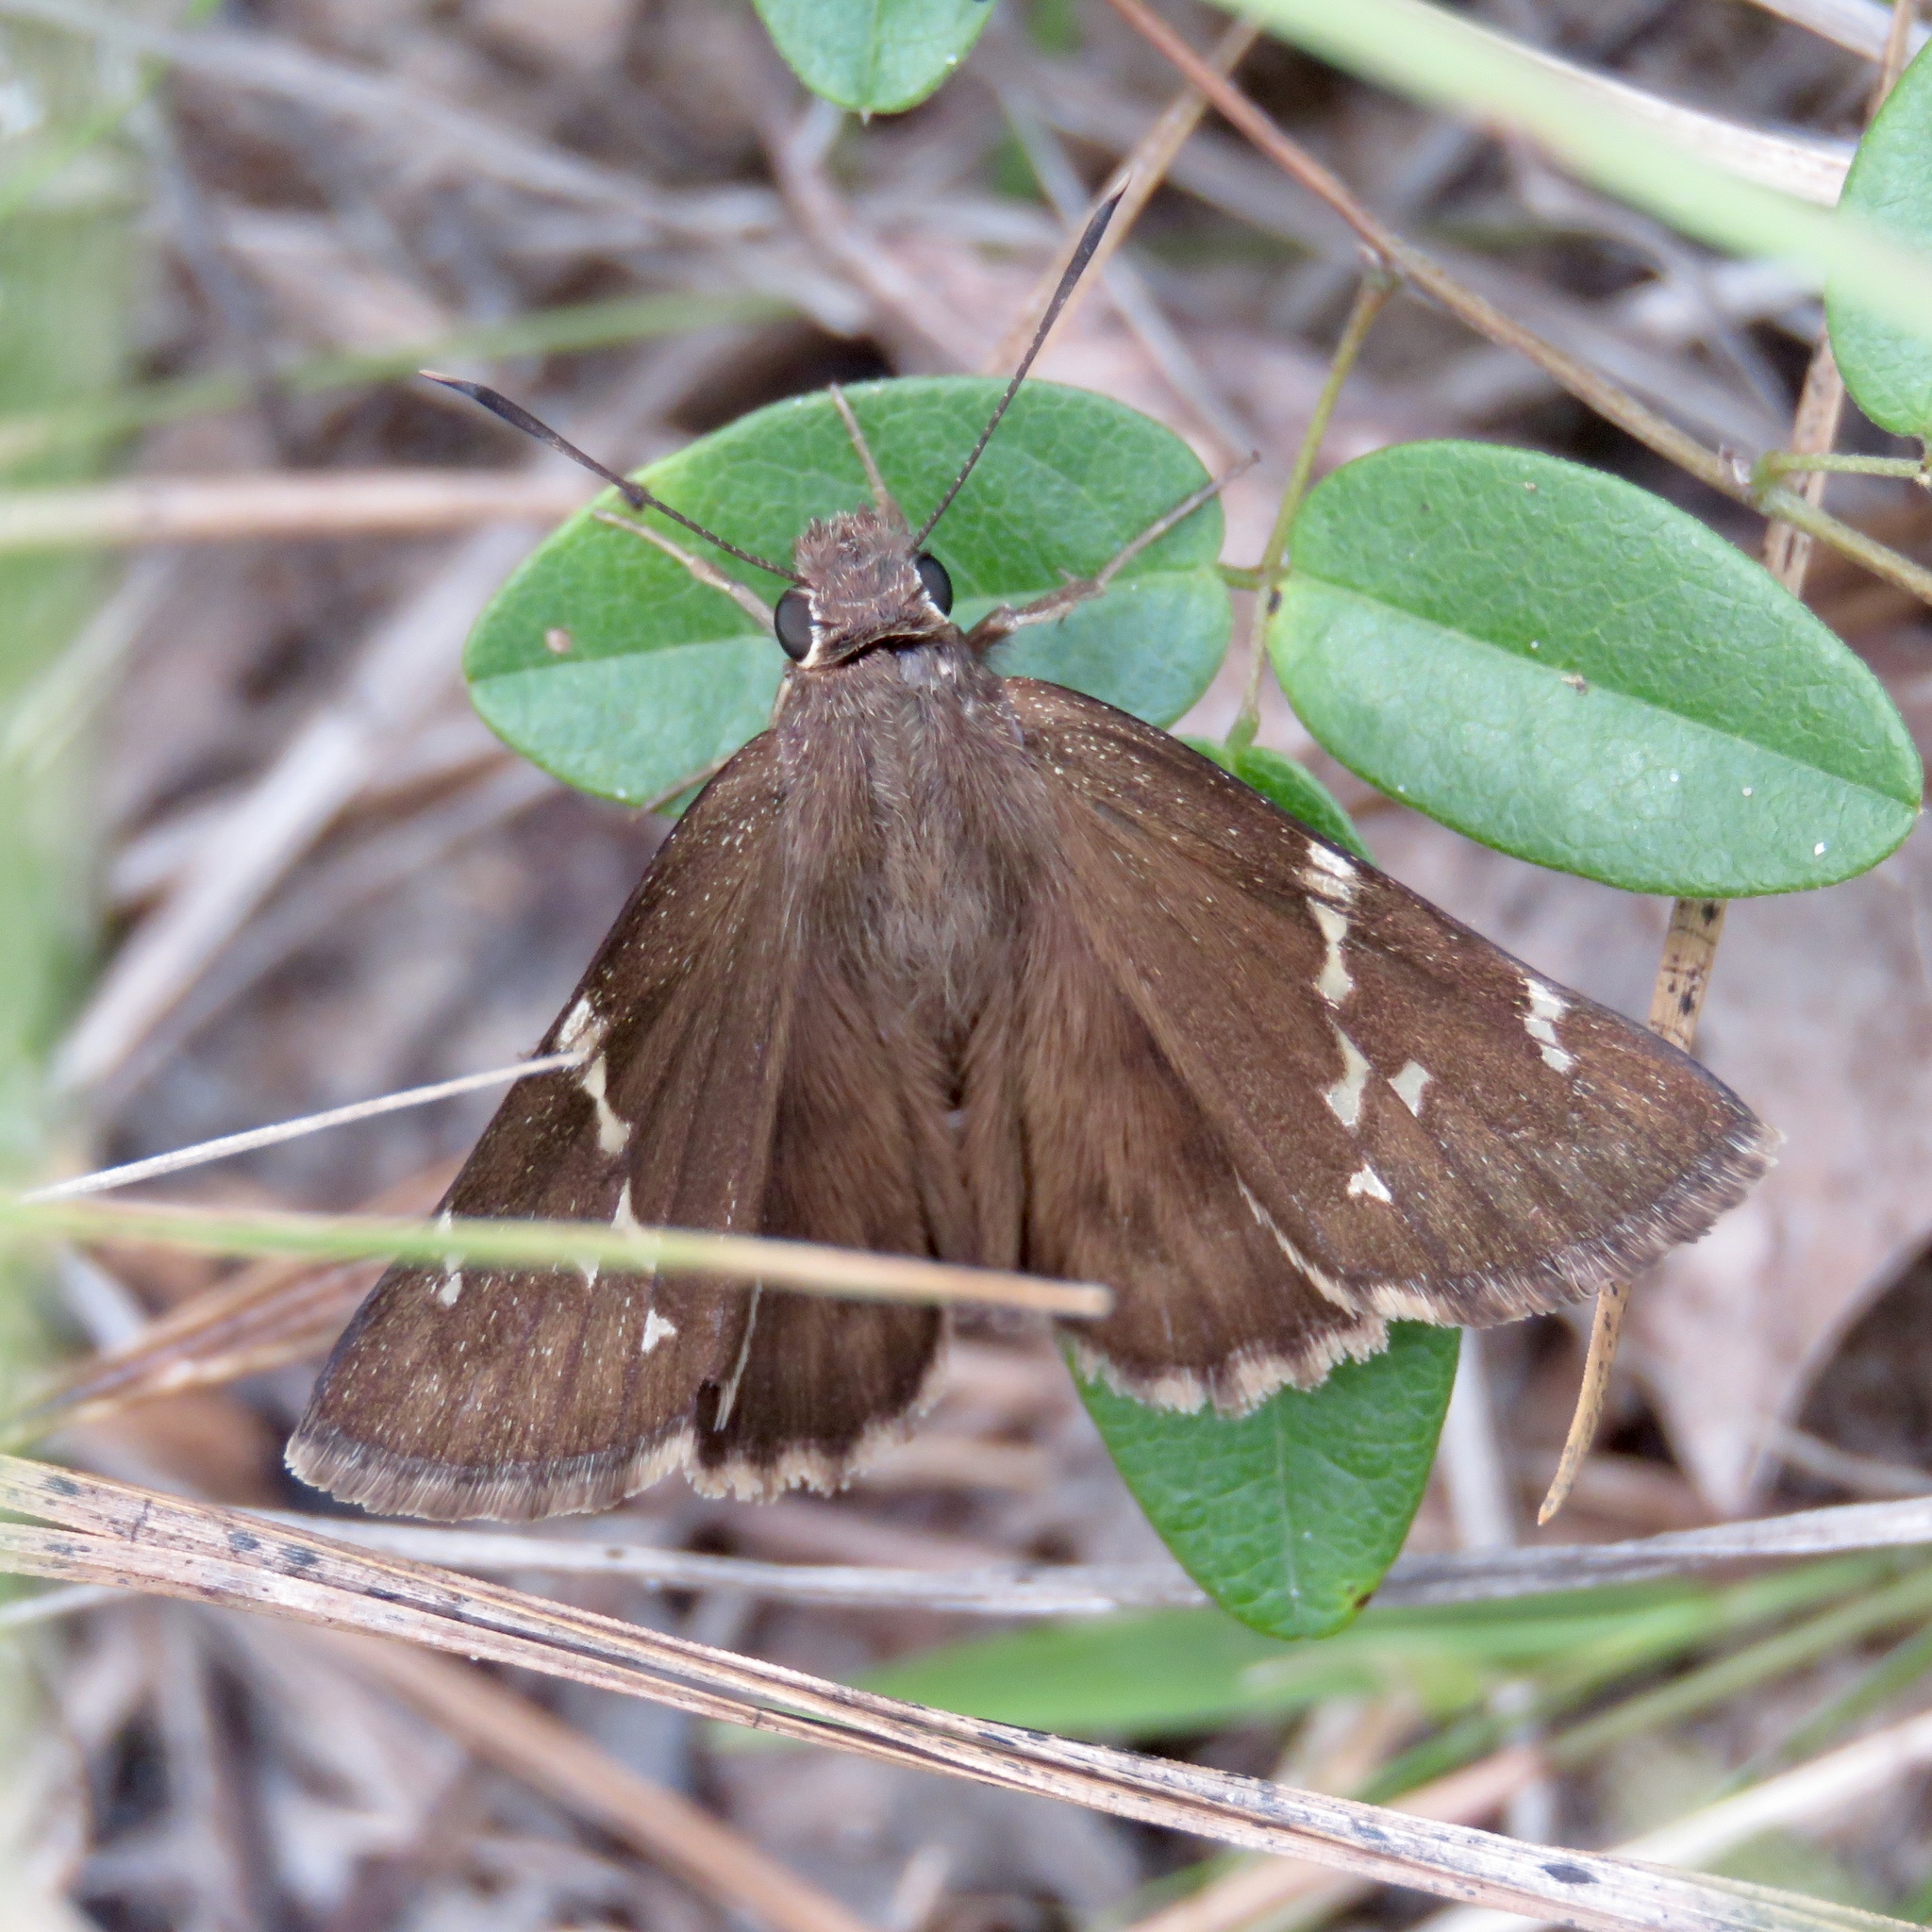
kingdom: Animalia
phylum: Arthropoda
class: Insecta
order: Lepidoptera
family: Hesperiidae
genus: Thorybes
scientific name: Thorybes daunus
